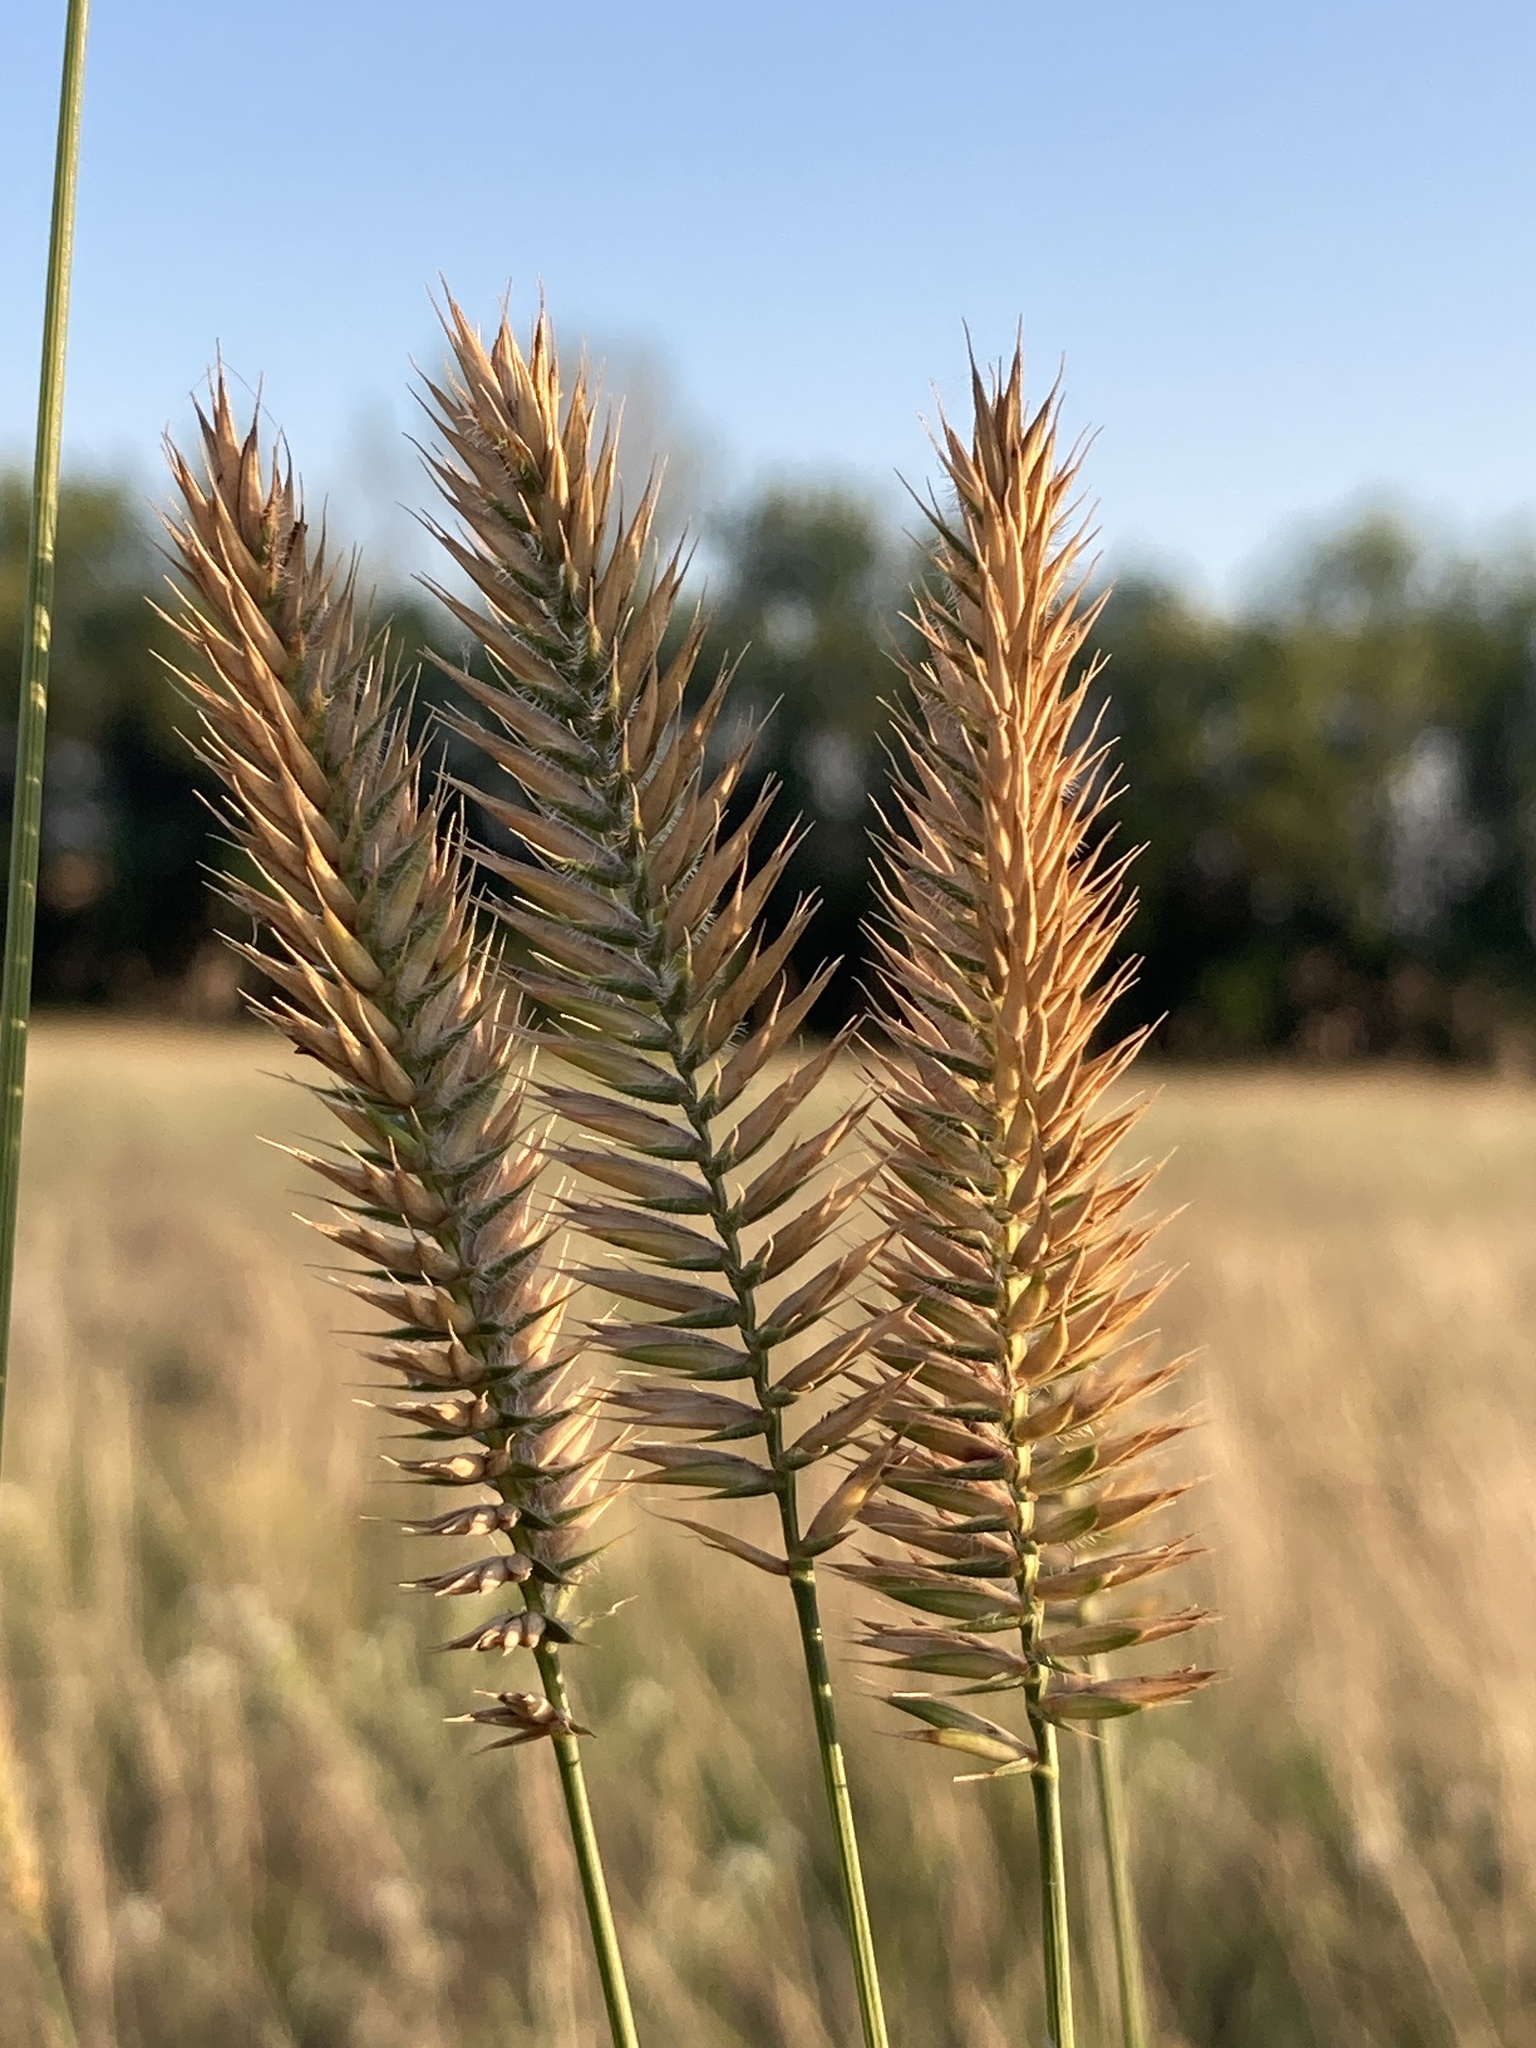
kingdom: Plantae
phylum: Tracheophyta
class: Liliopsida
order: Poales
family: Poaceae
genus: Agropyron
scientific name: Agropyron cristatum
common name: Crested wheatgrass
